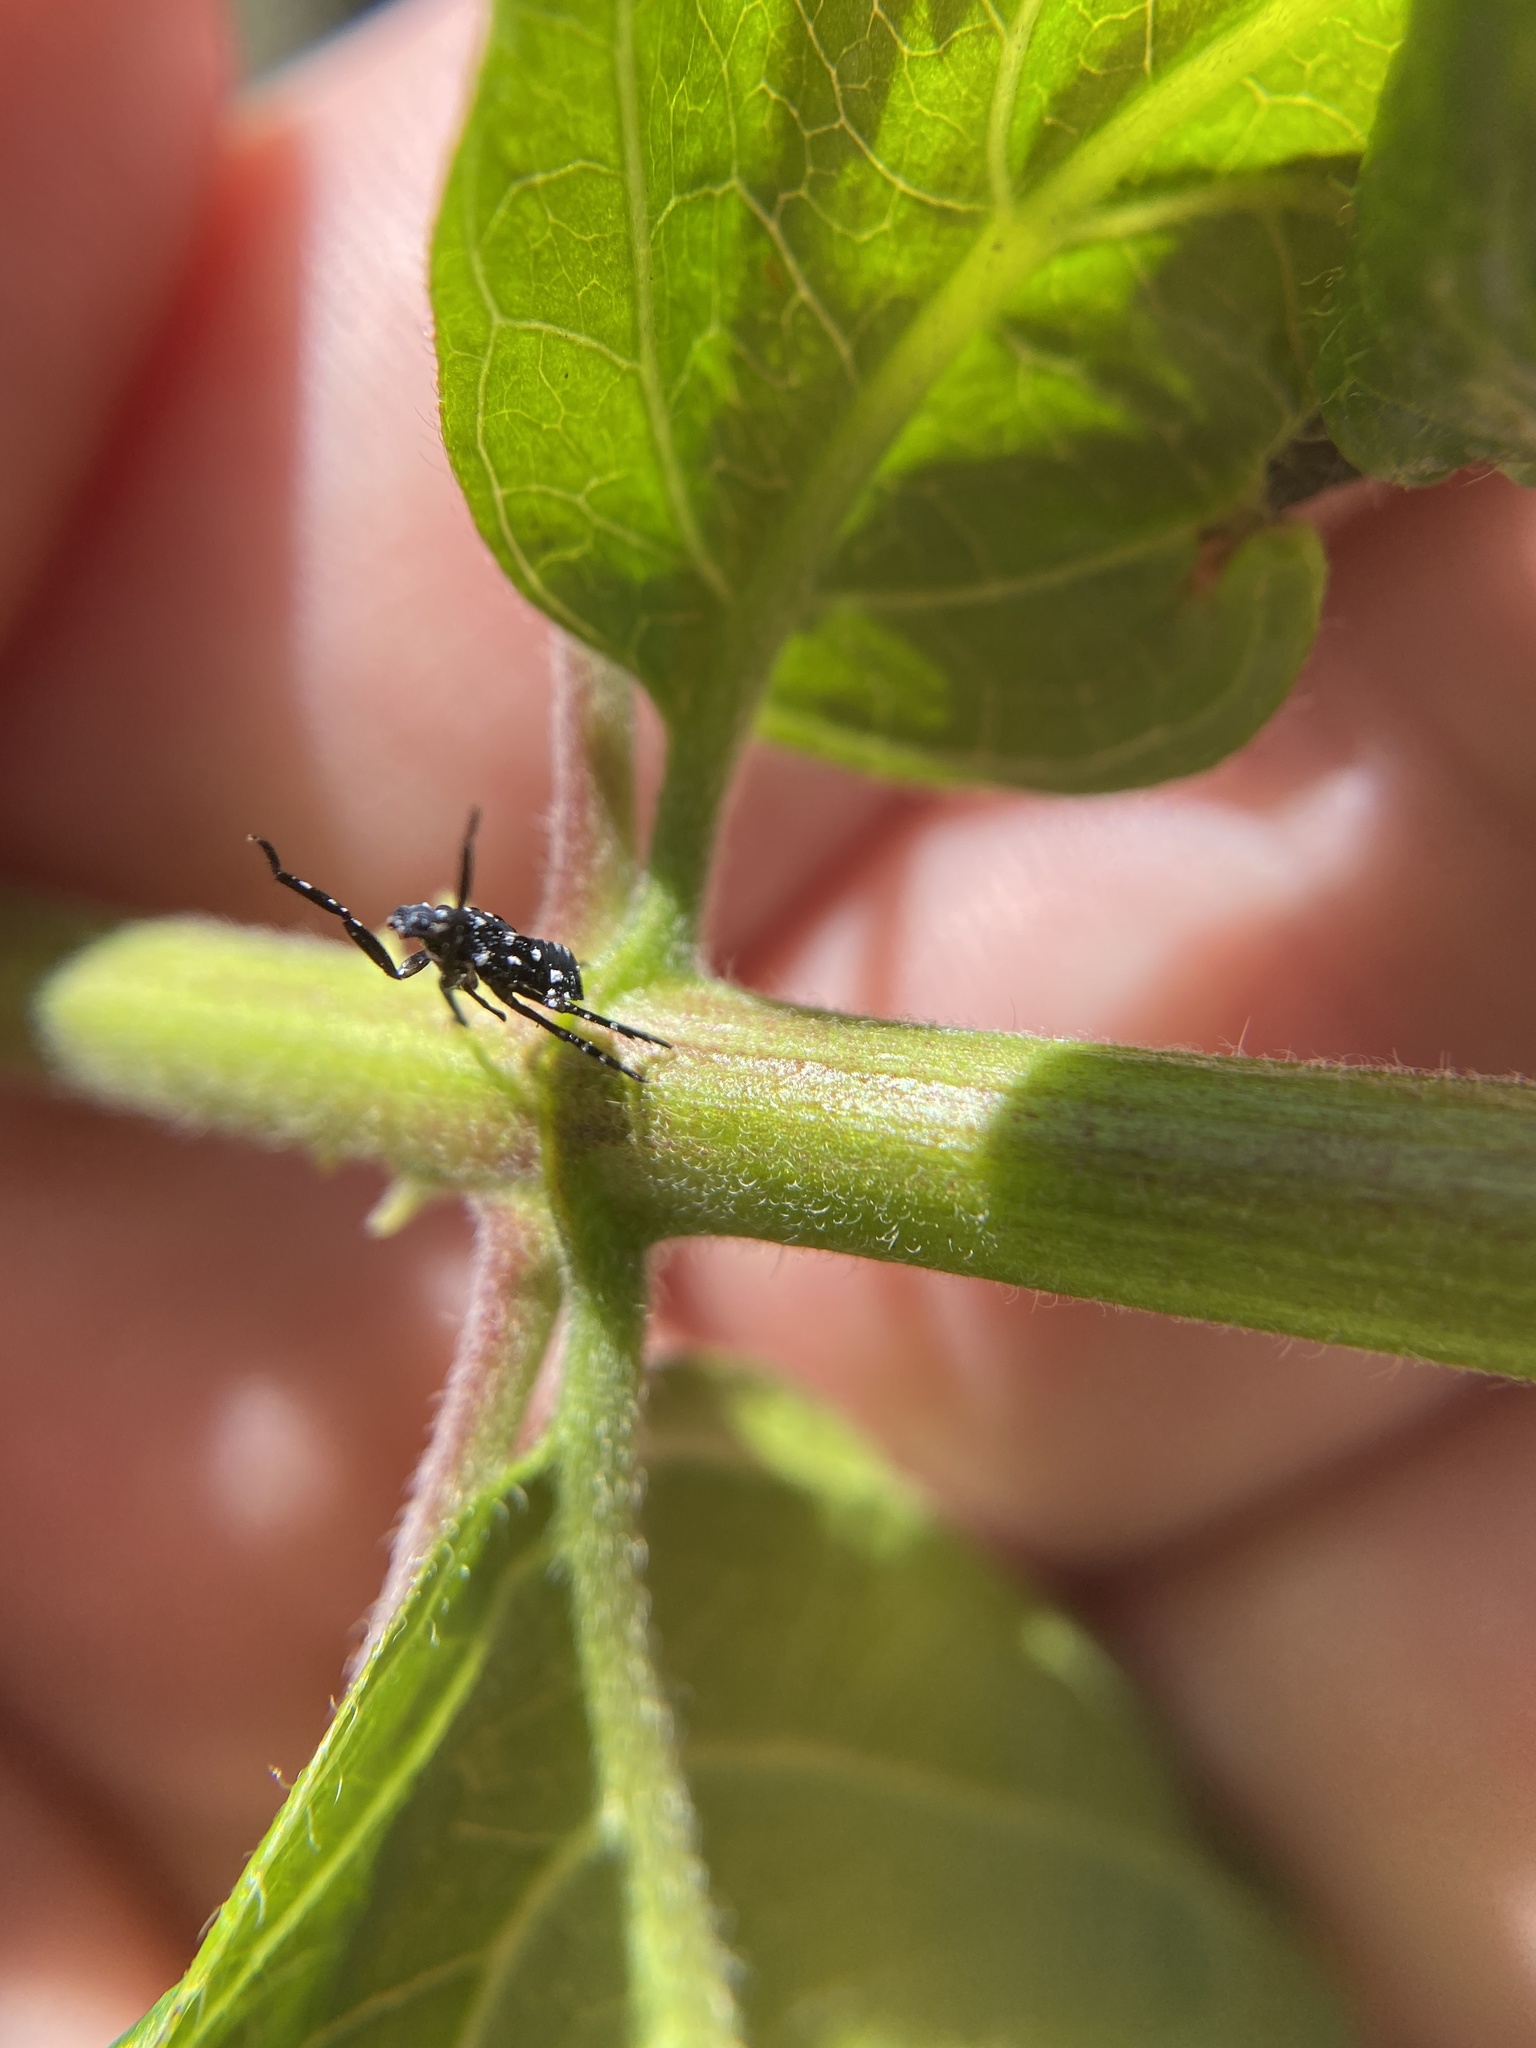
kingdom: Animalia
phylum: Arthropoda
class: Insecta
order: Hemiptera
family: Fulgoridae
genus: Lycorma
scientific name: Lycorma delicatula
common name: Spotted lanternfly
